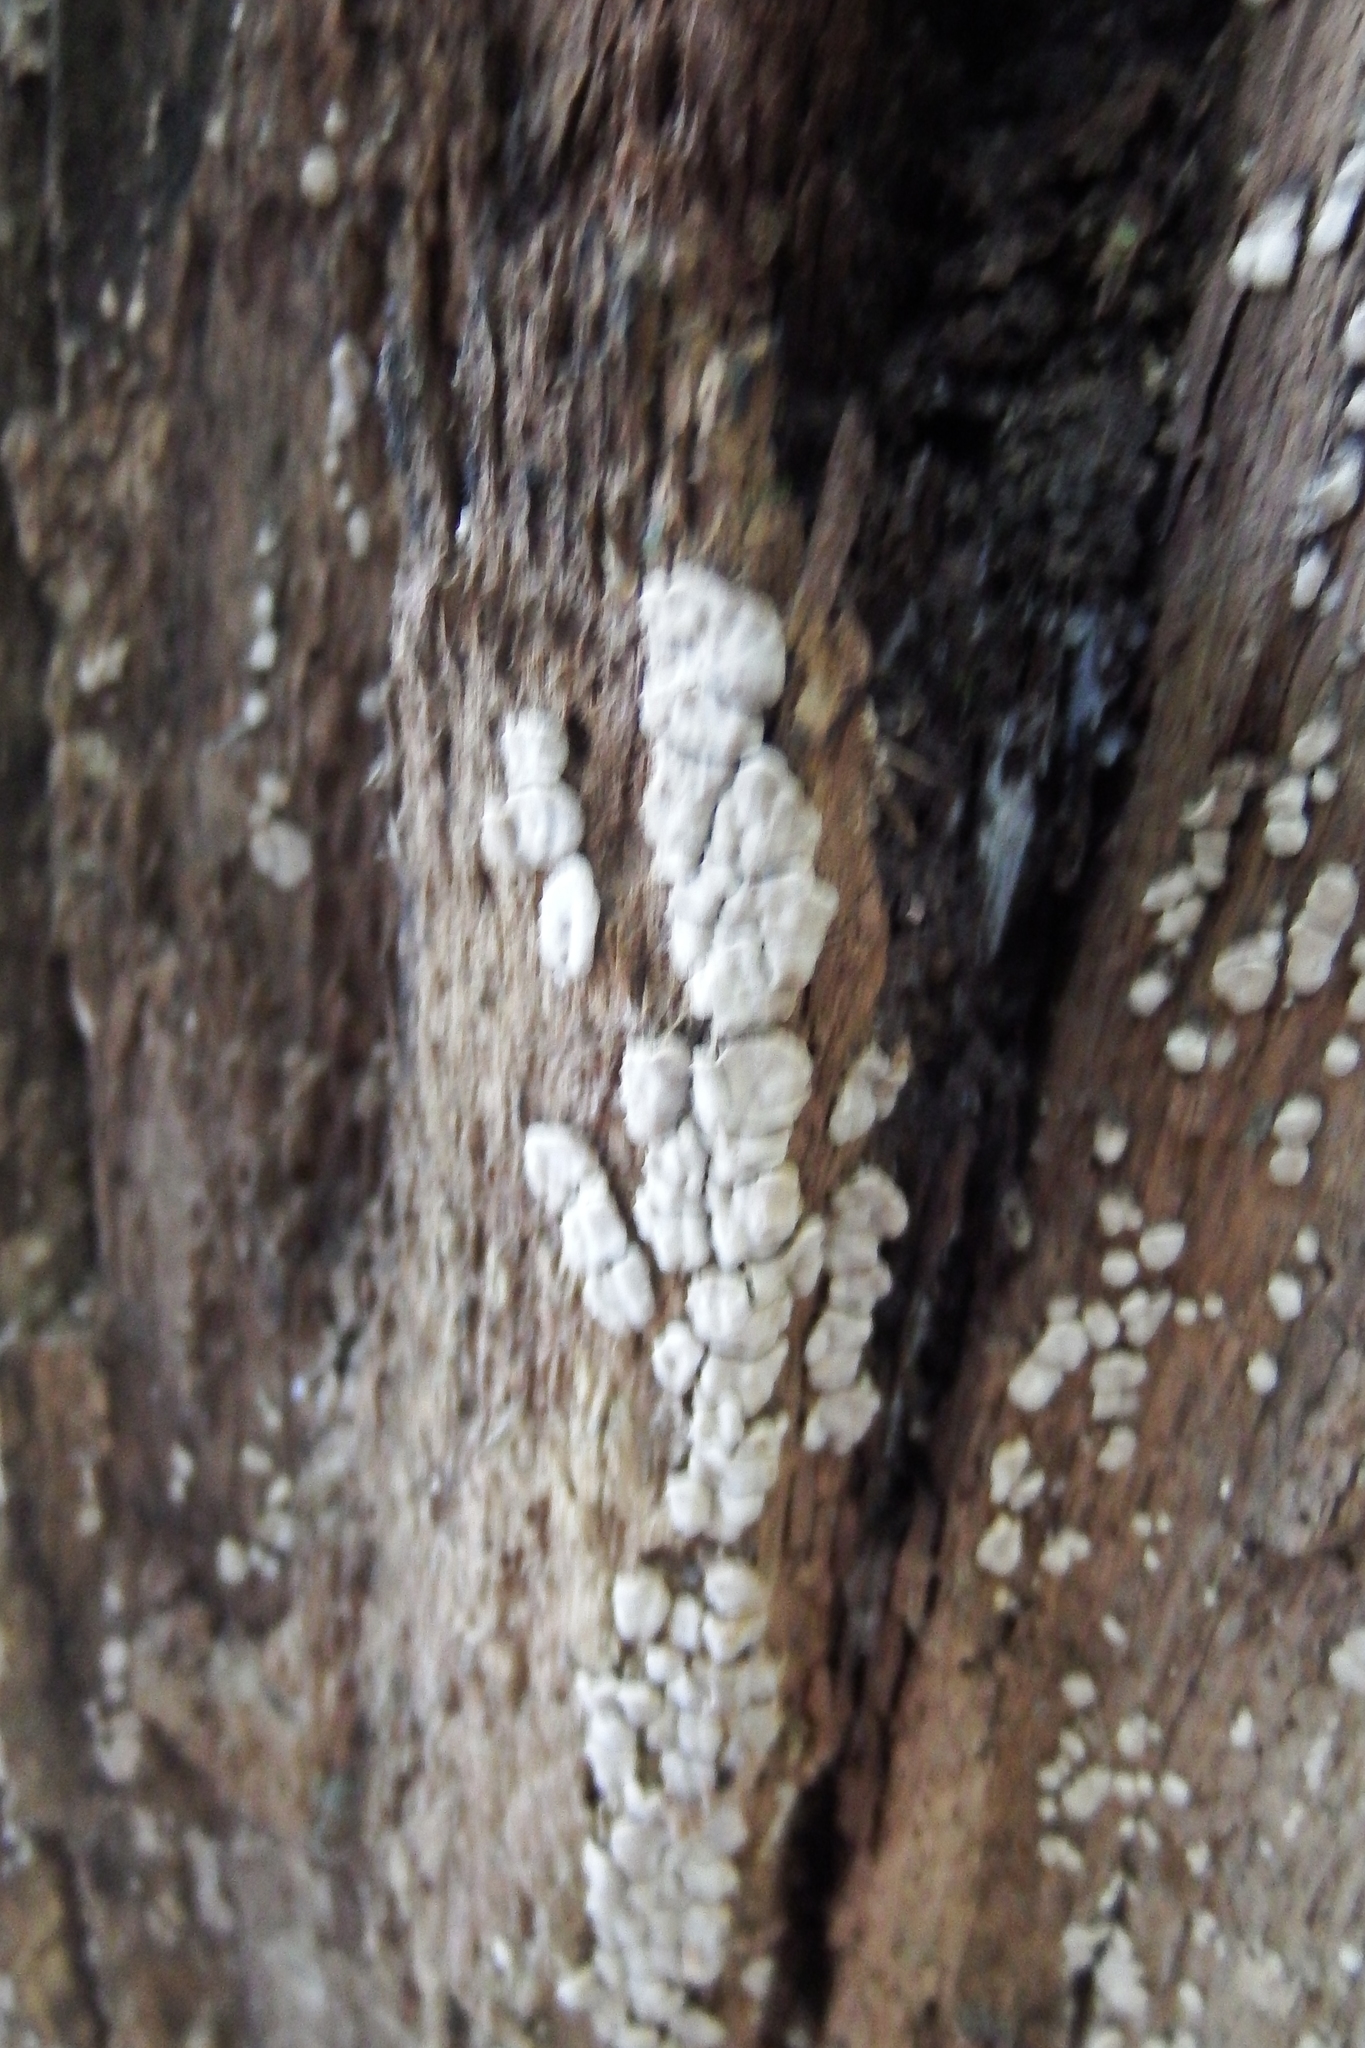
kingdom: Fungi
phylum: Basidiomycota
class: Agaricomycetes
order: Russulales
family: Stereaceae
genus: Xylobolus
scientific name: Xylobolus frustulatus
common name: Ceramic parchment
